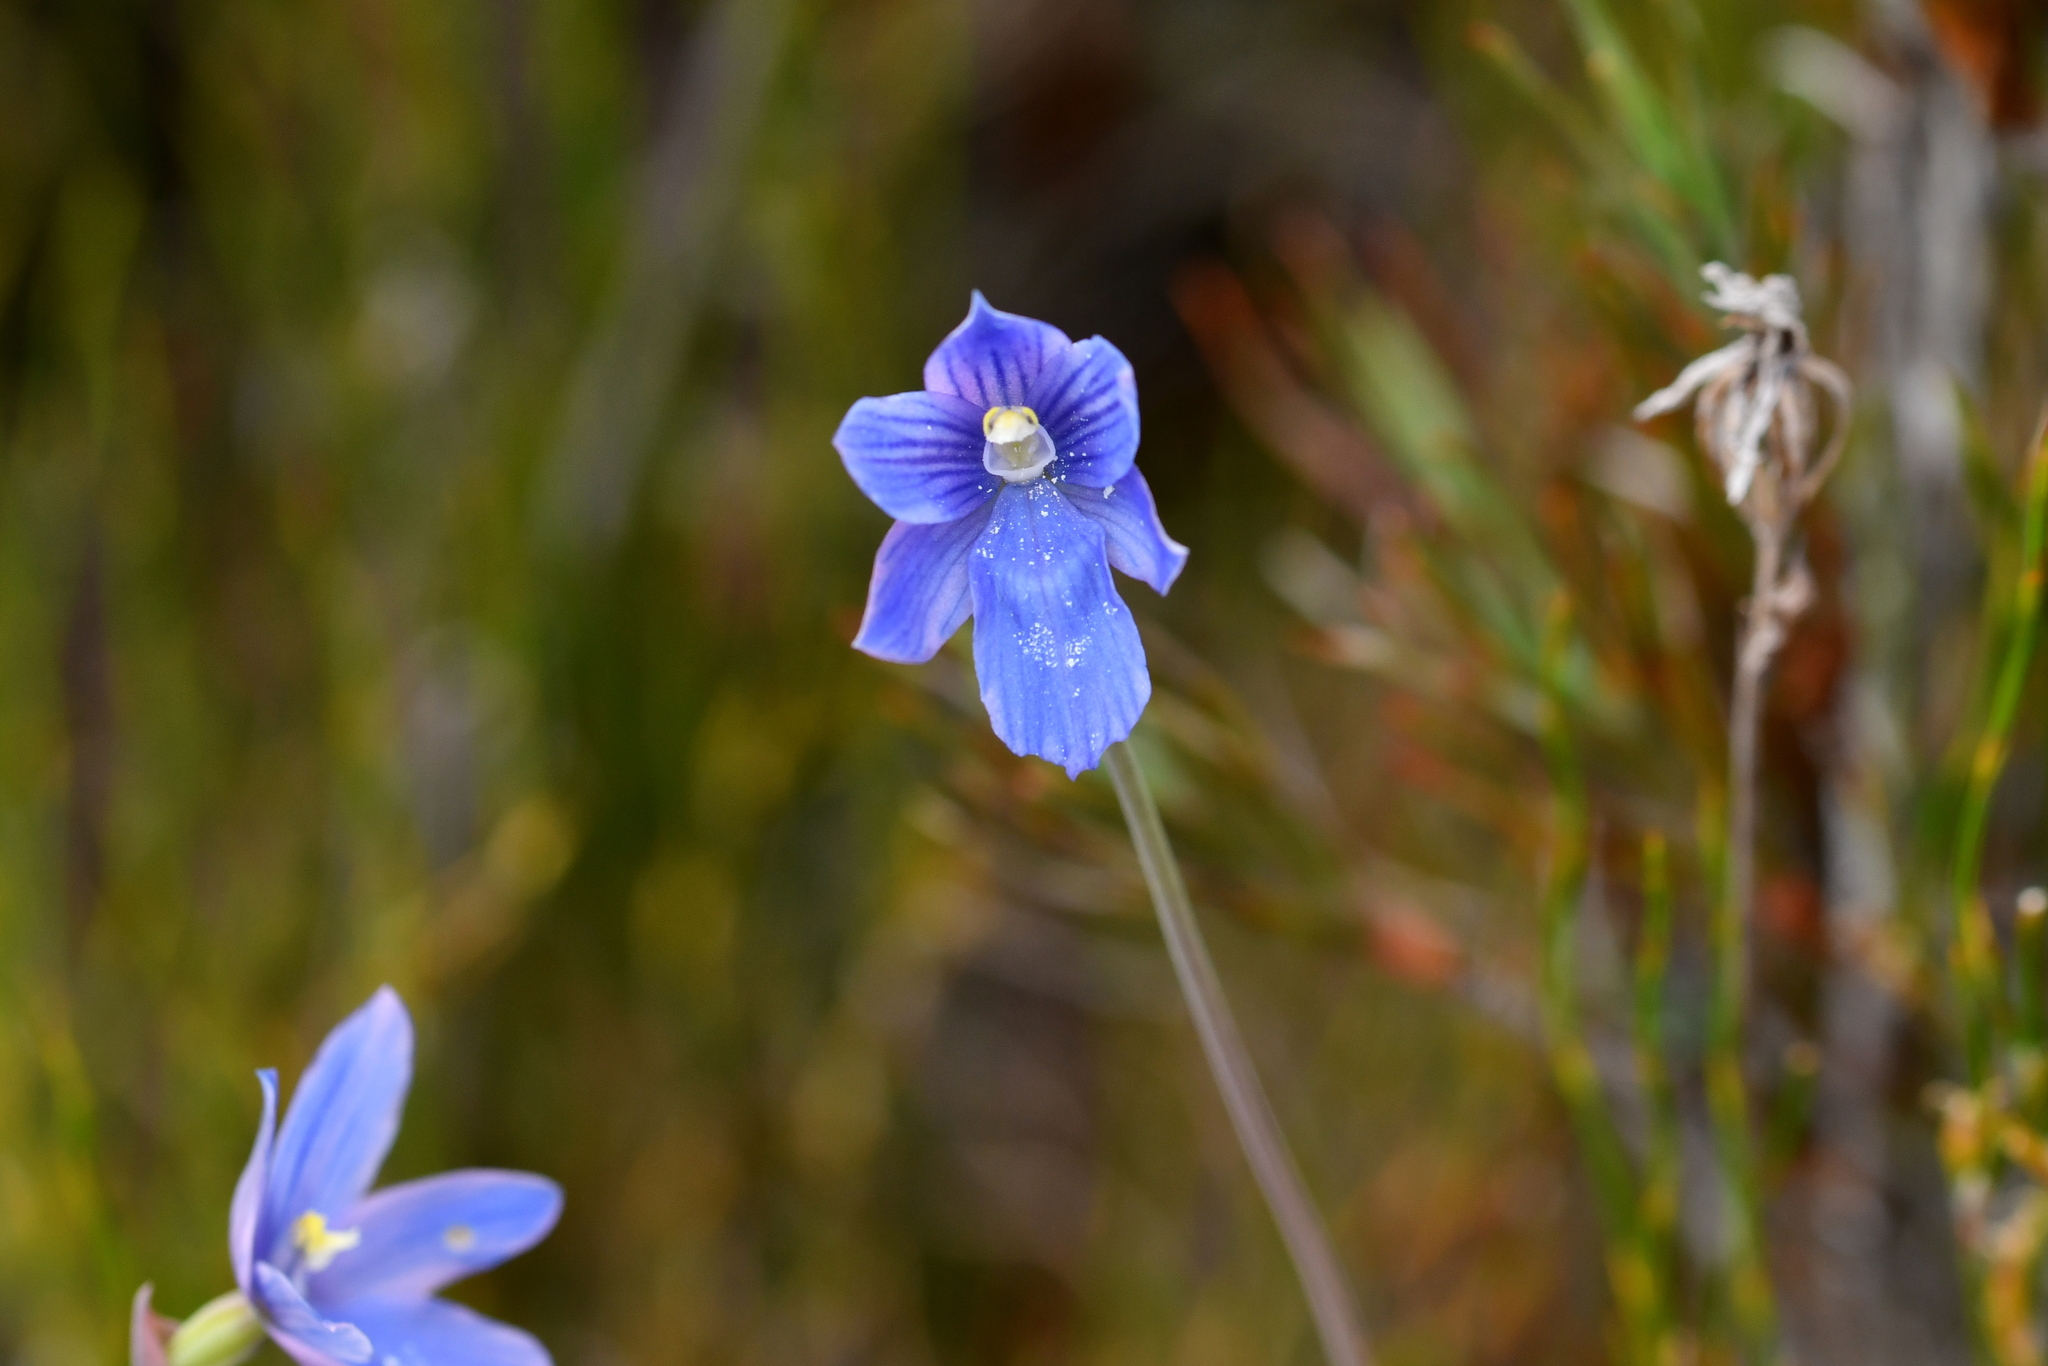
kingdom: Plantae
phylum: Tracheophyta
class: Liliopsida
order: Asparagales
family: Orchidaceae
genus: Thelymitra
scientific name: Thelymitra cyanea
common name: Blue sun-orchid
